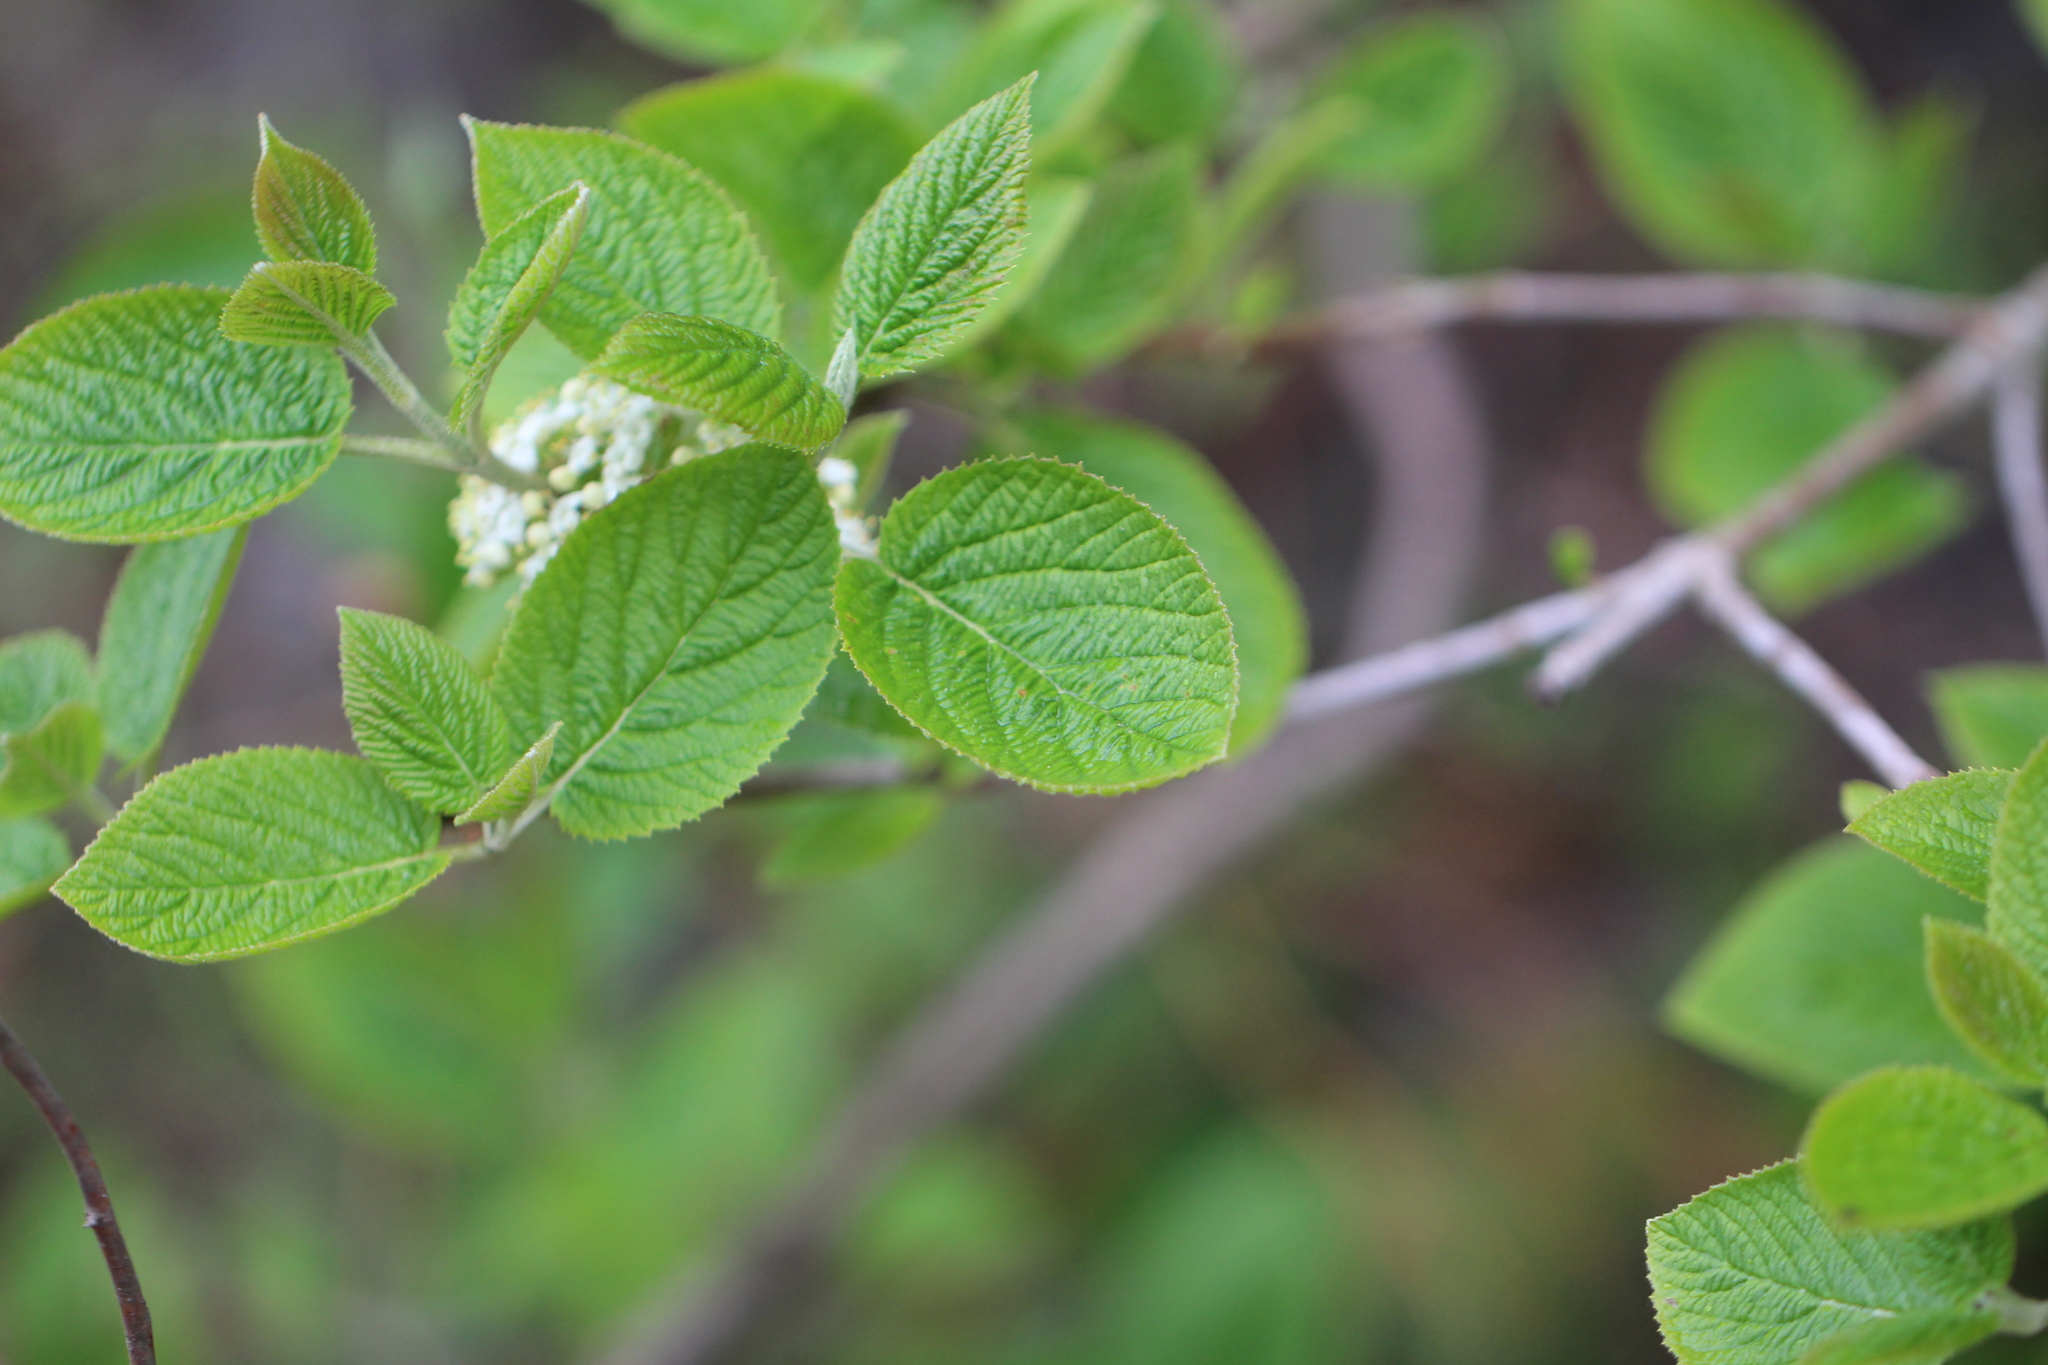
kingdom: Plantae
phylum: Tracheophyta
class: Magnoliopsida
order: Dipsacales
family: Viburnaceae
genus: Viburnum
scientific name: Viburnum lantana
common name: Wayfaring tree
